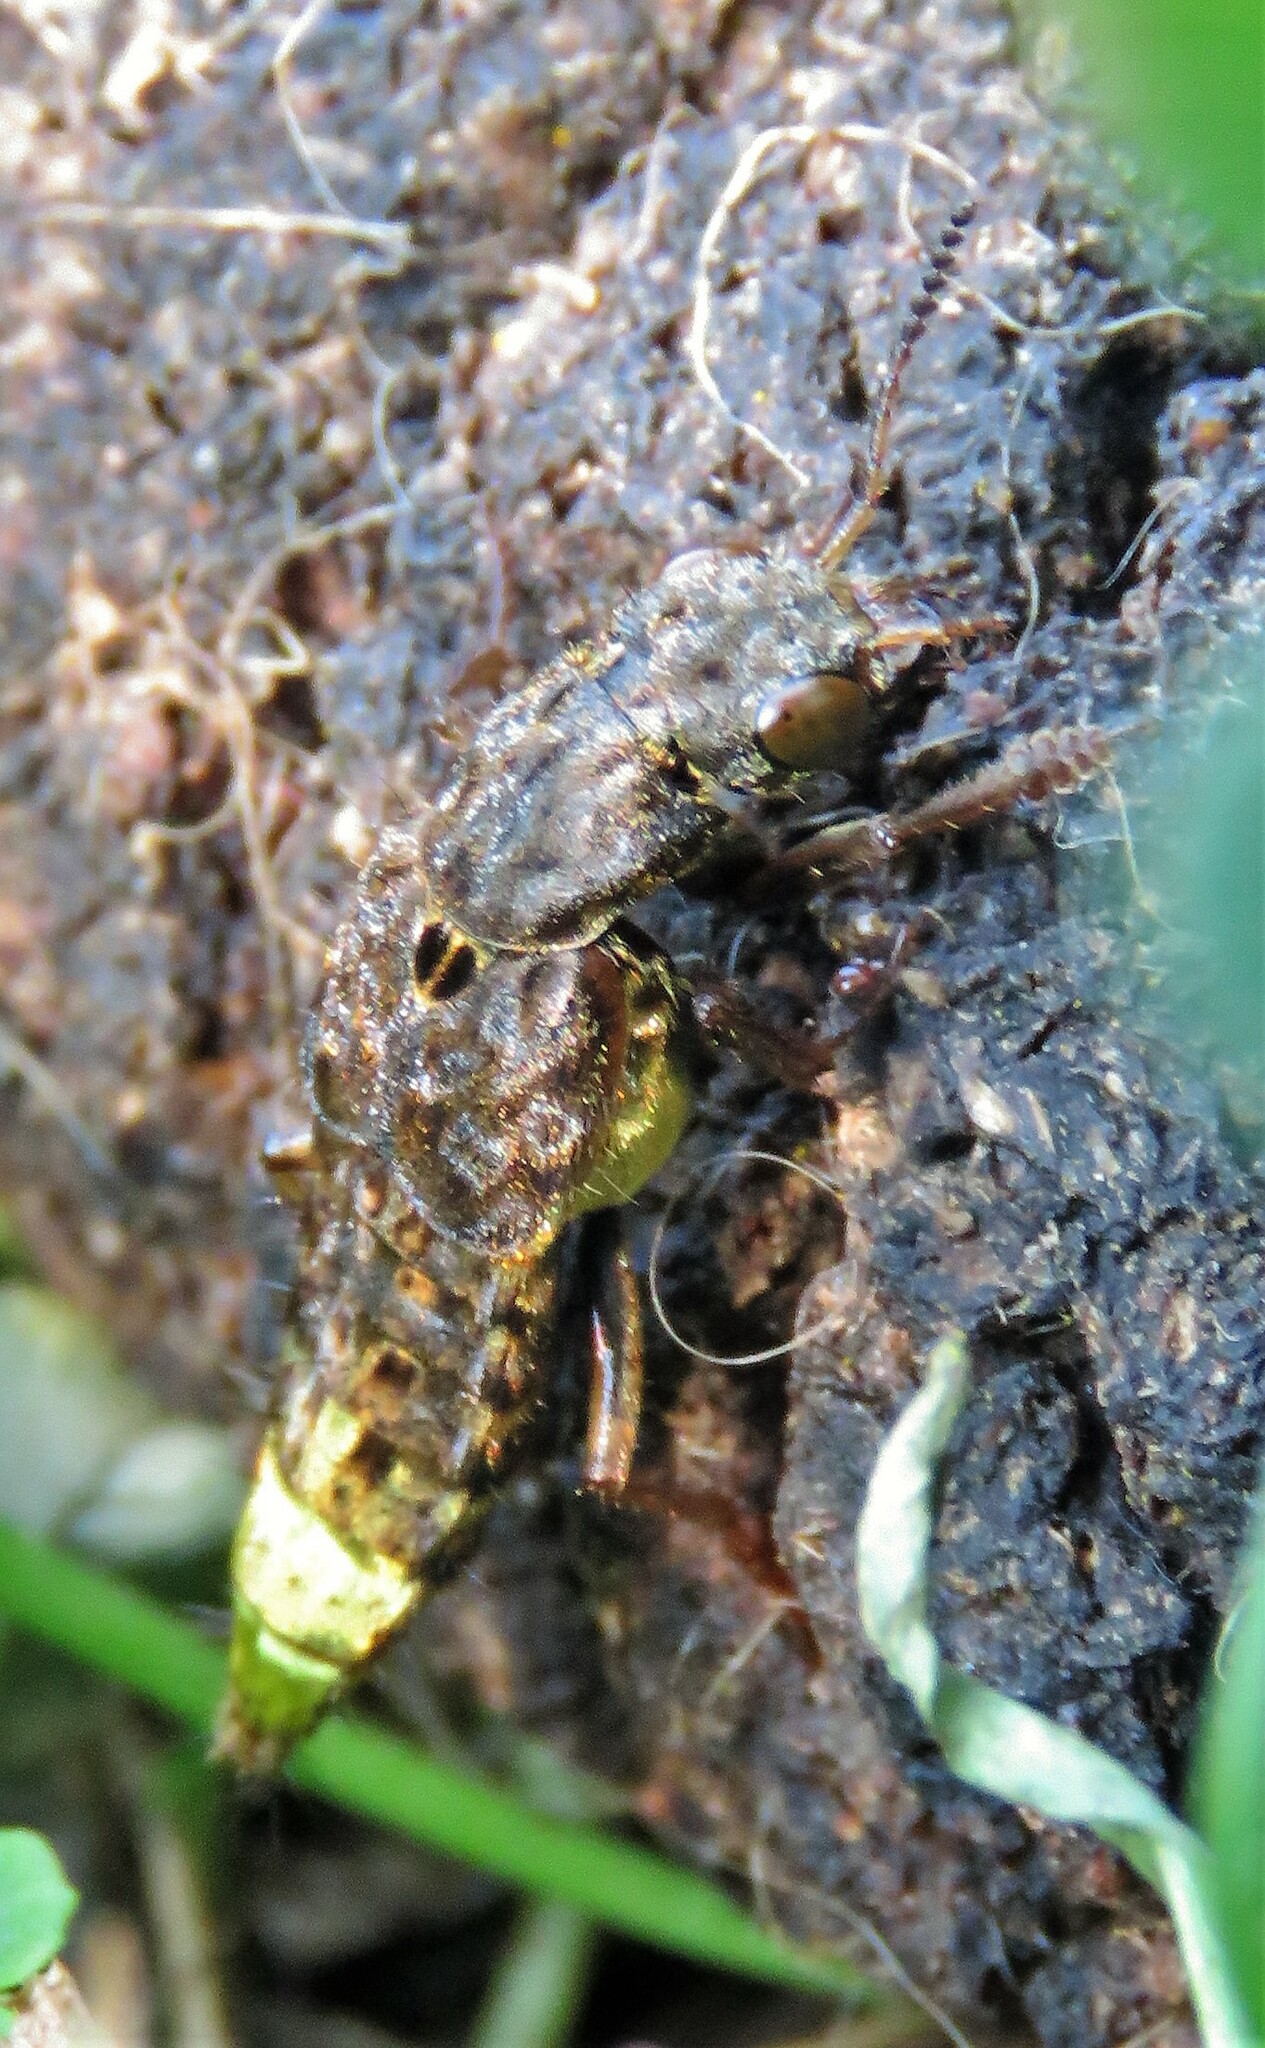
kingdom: Animalia
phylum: Arthropoda
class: Insecta
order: Coleoptera
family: Staphylinidae
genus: Ontholestes
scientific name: Ontholestes cingulatus
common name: Gold-and-brown rove beetle
